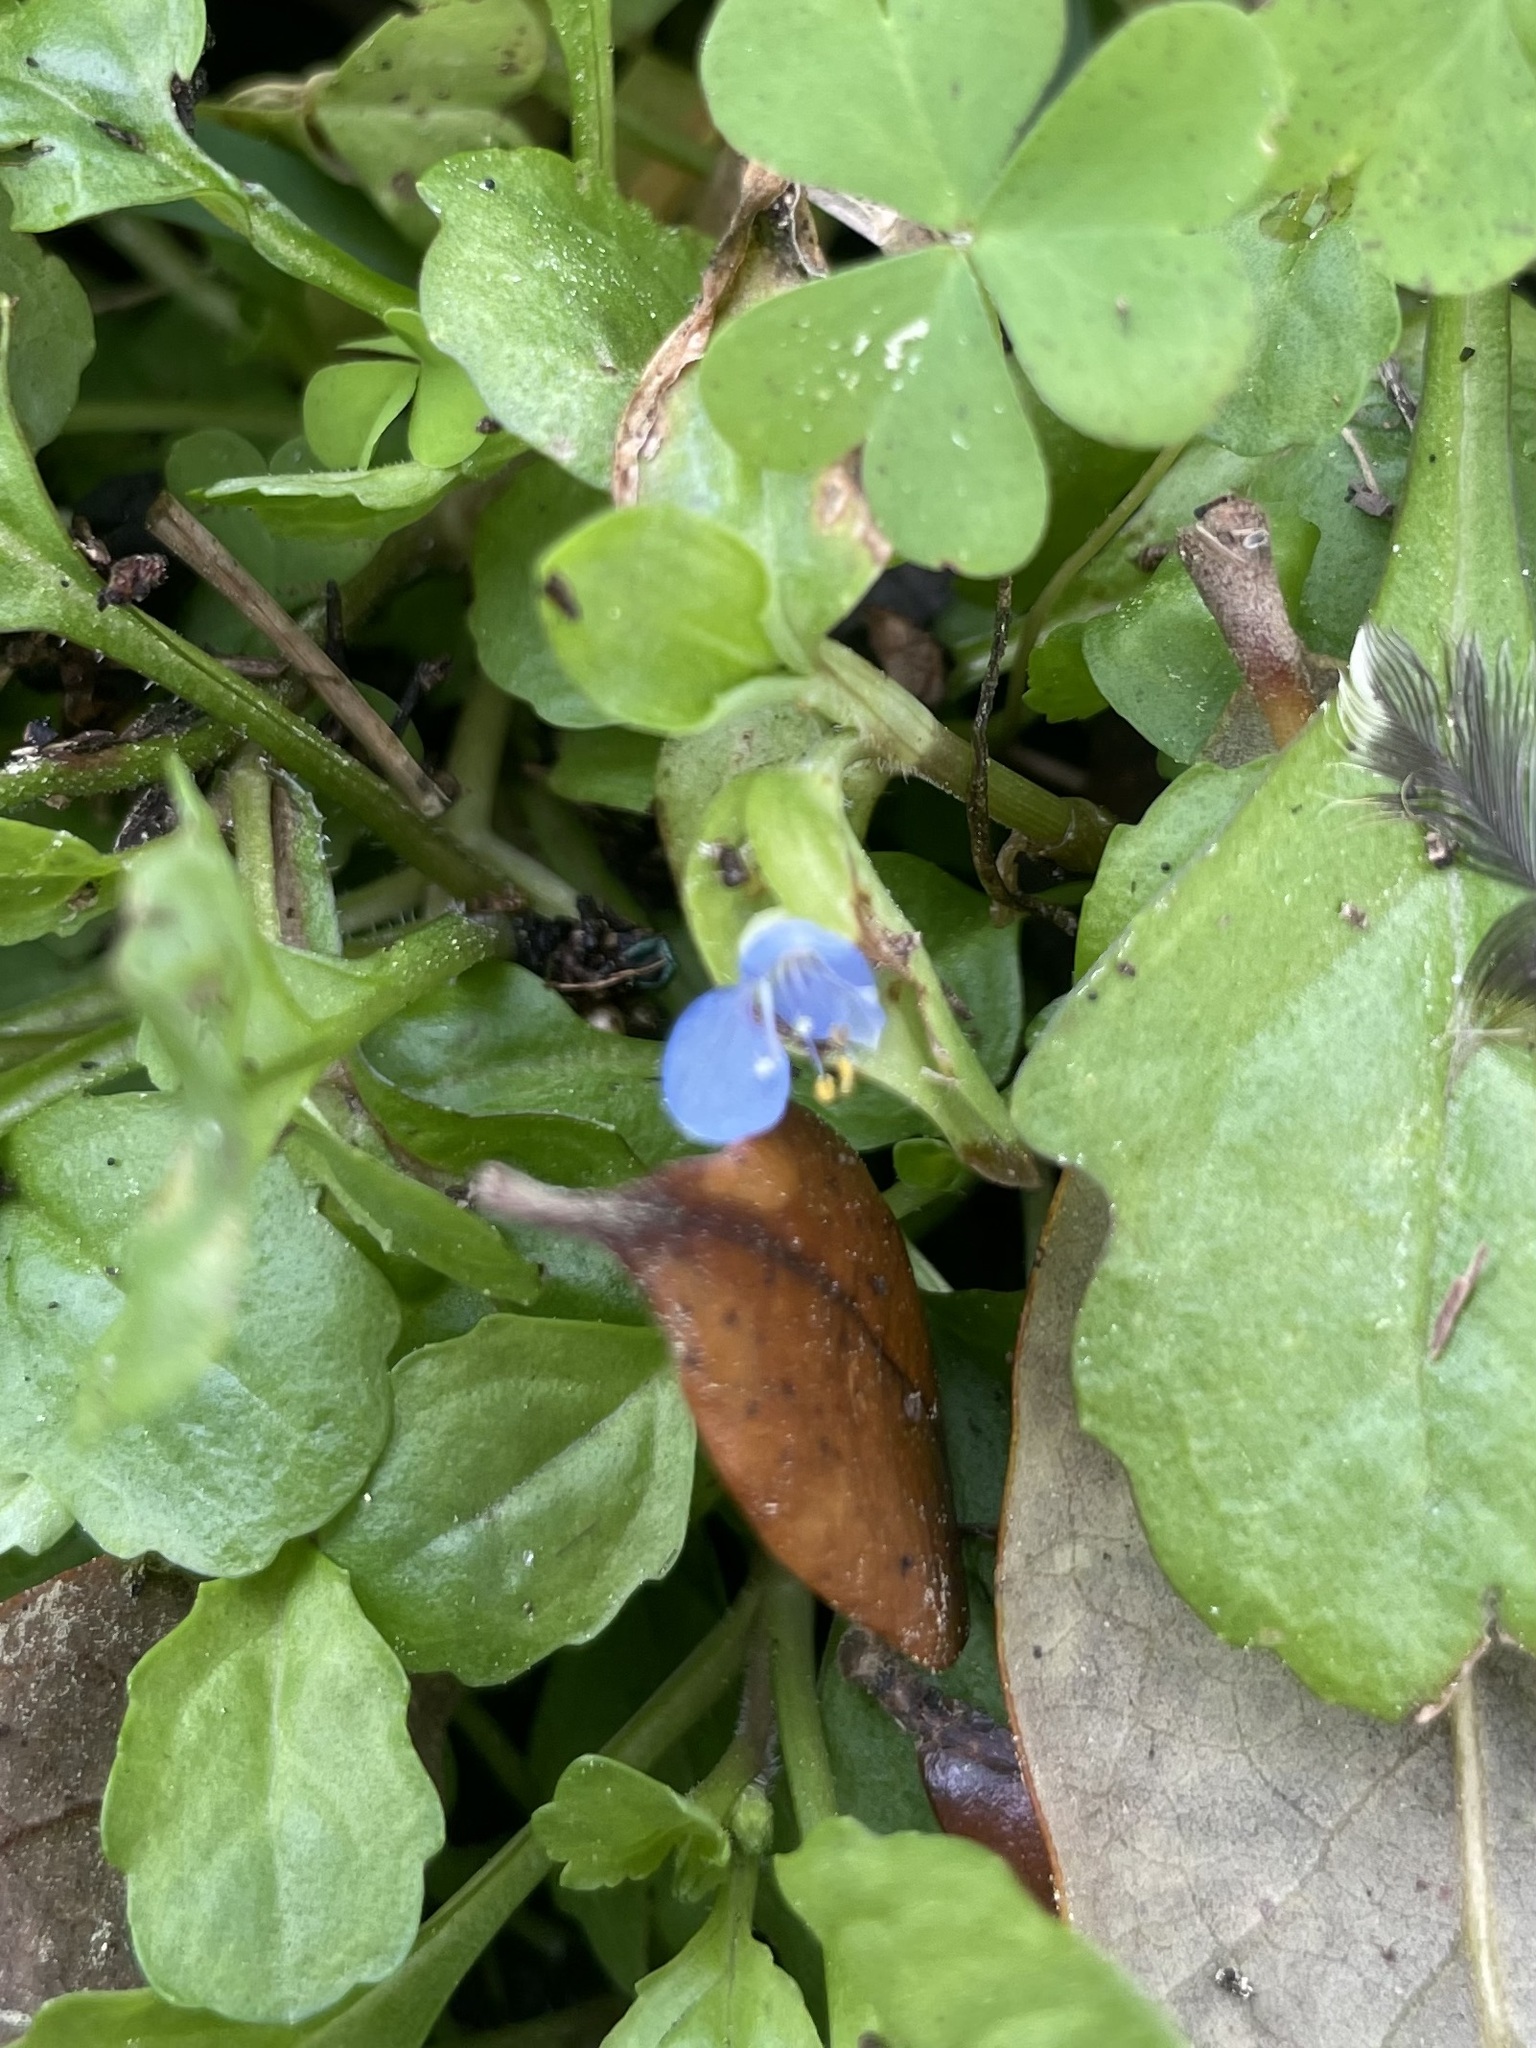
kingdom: Plantae
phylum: Tracheophyta
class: Liliopsida
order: Commelinales
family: Commelinaceae
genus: Commelina
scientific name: Commelina diffusa
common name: Climbing dayflower
